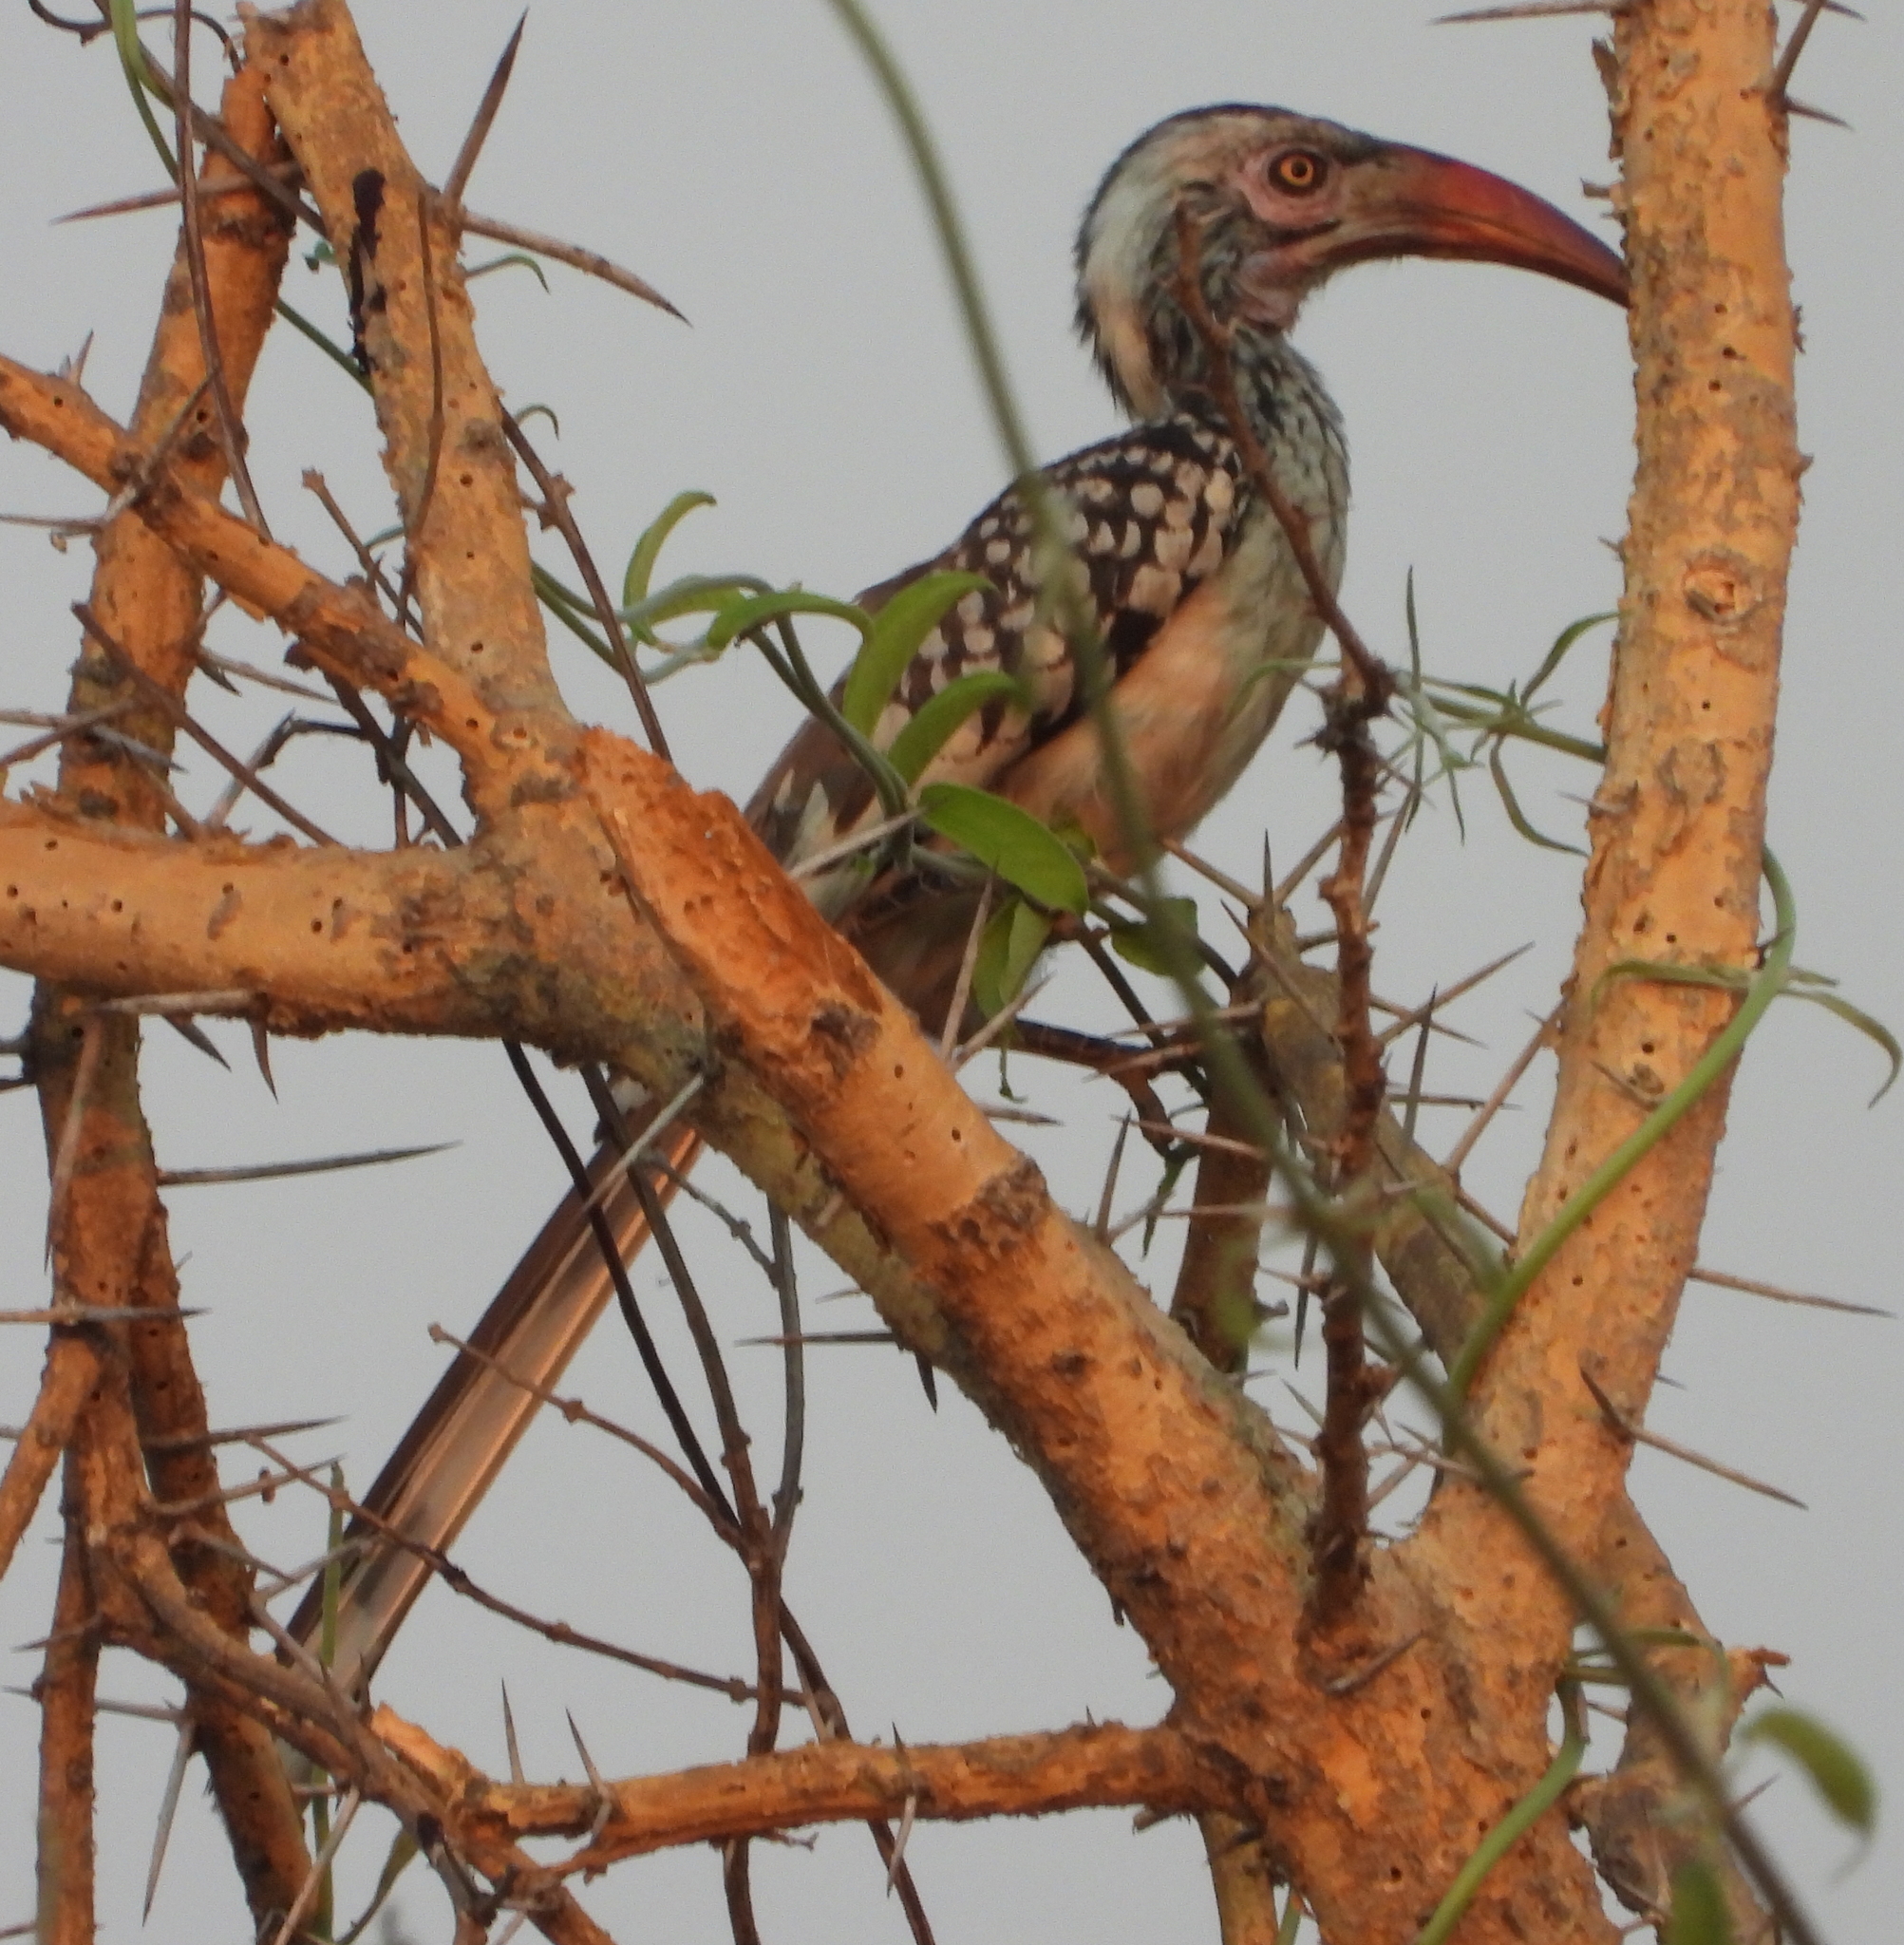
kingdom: Animalia
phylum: Chordata
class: Aves
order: Bucerotiformes
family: Bucerotidae
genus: Tockus
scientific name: Tockus rufirostris
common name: Southern red-billed hornbill
